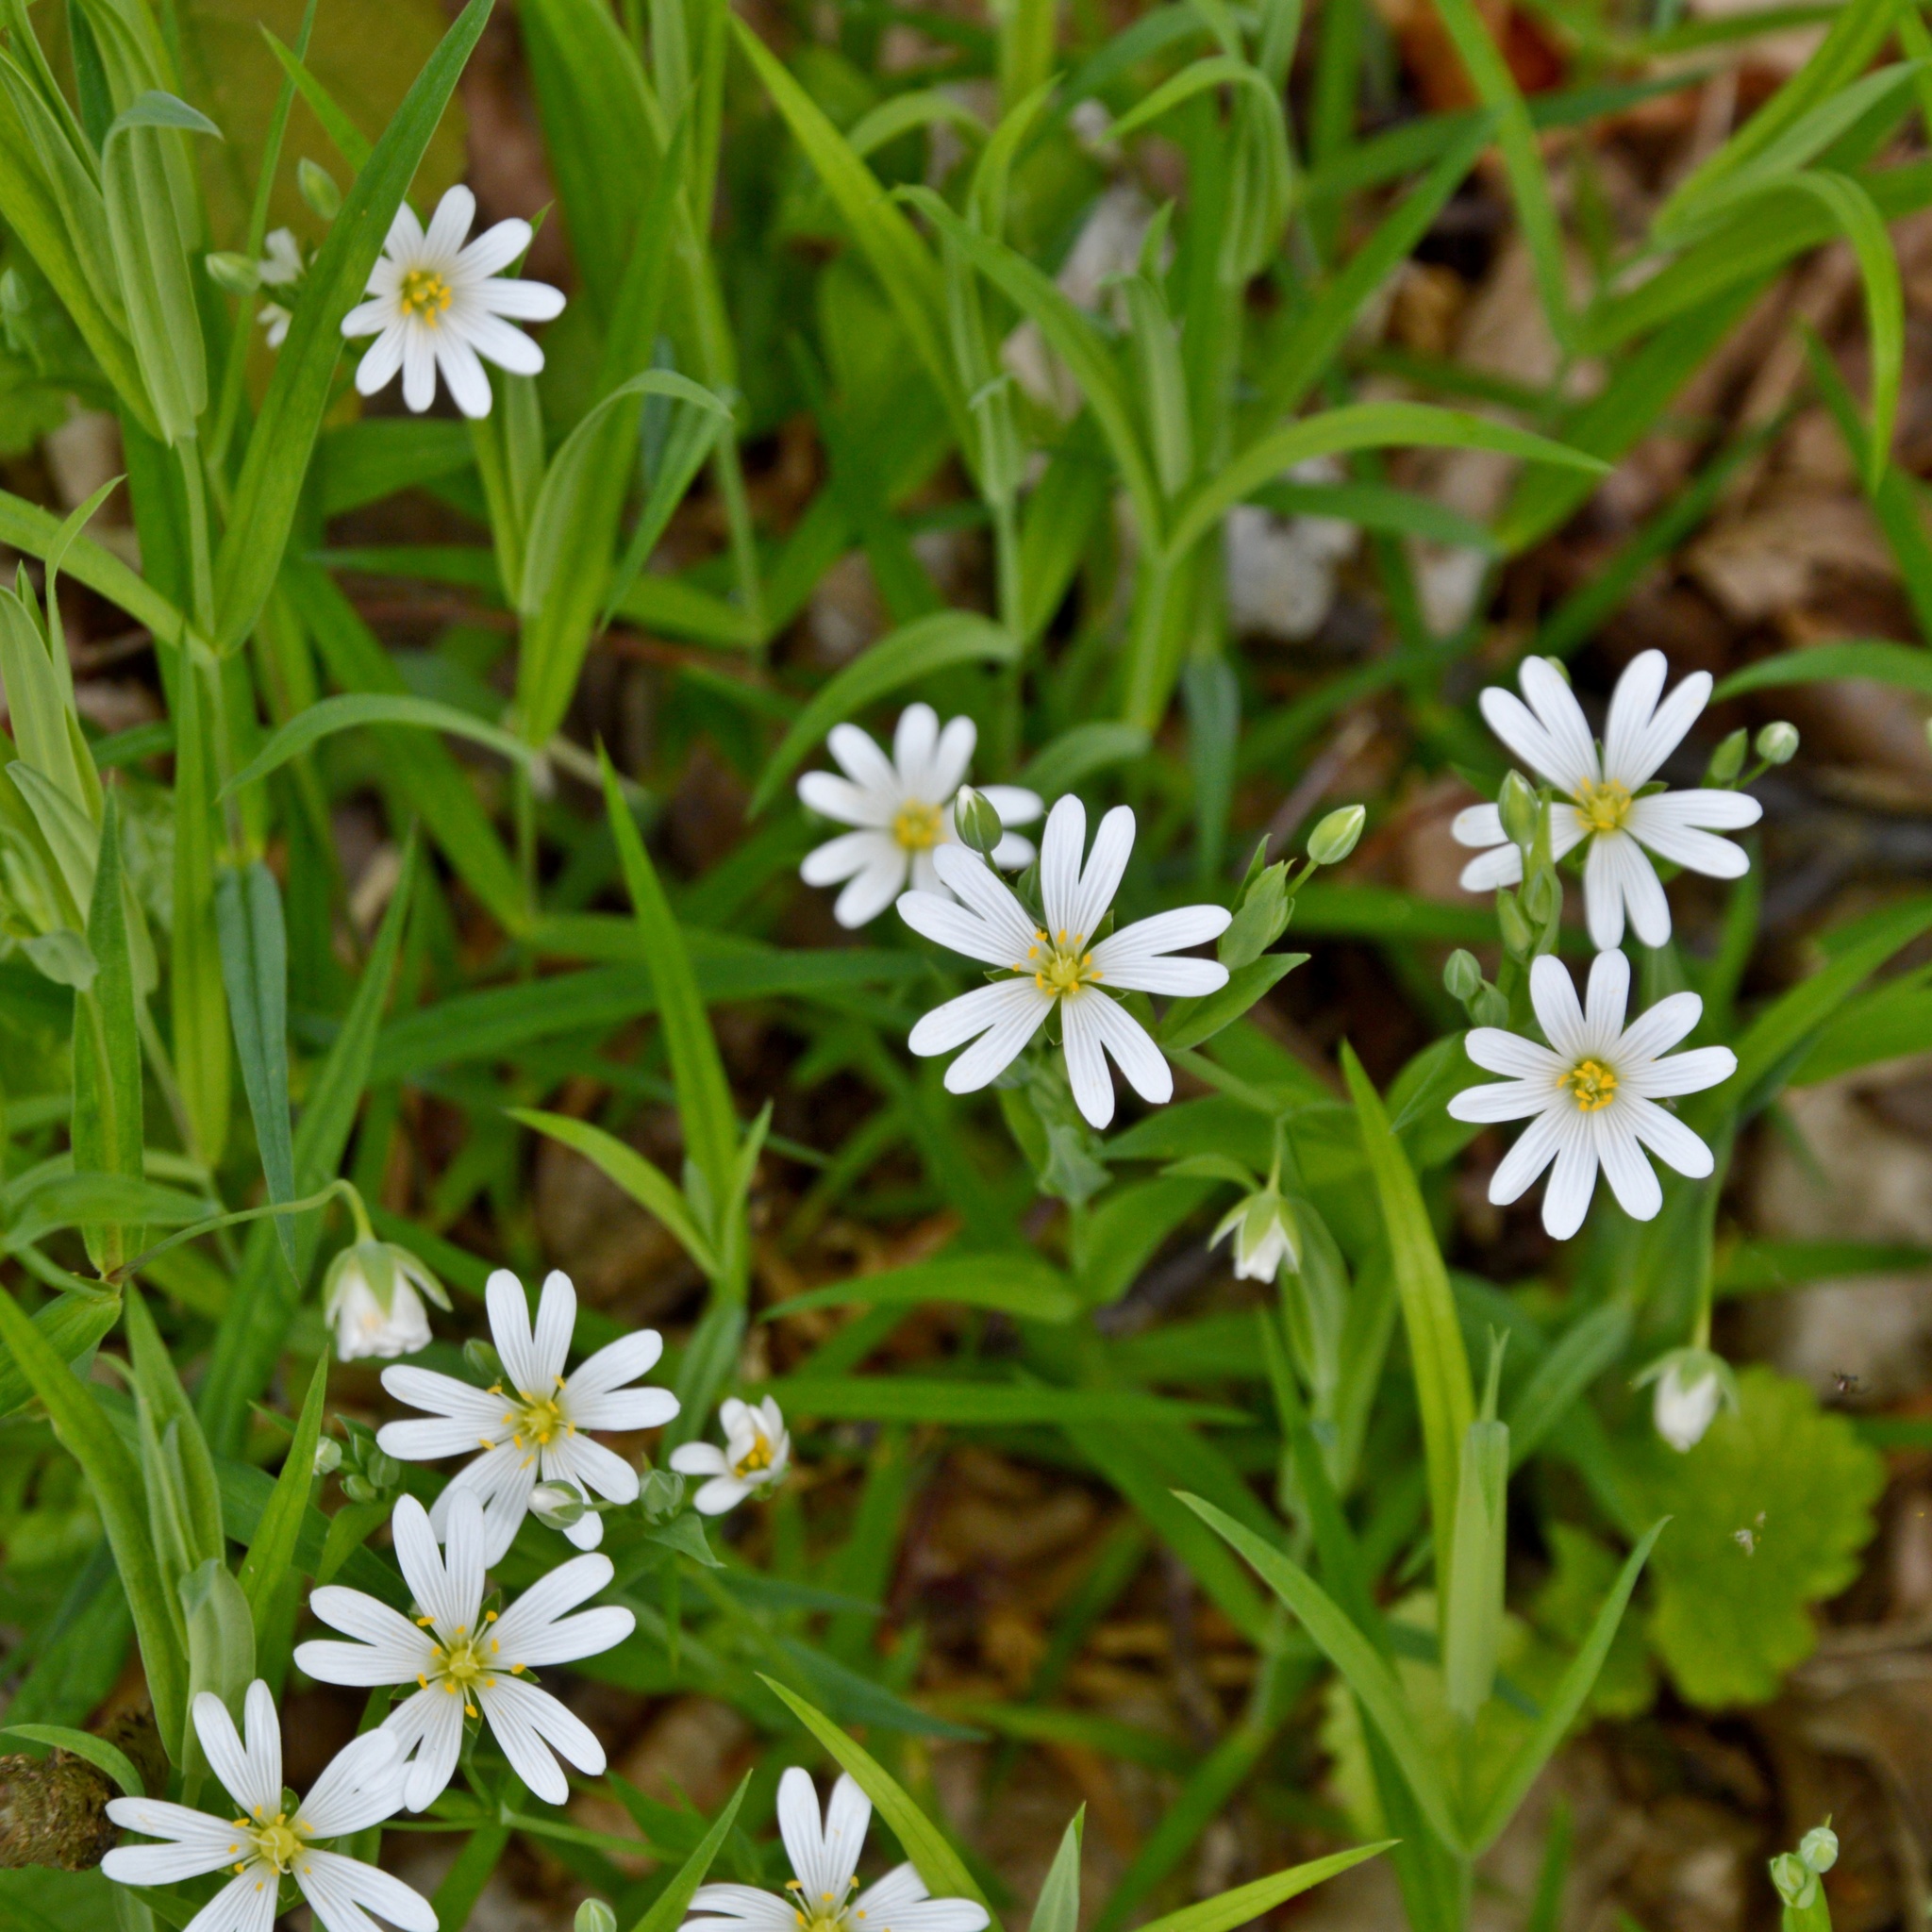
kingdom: Plantae
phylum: Tracheophyta
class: Magnoliopsida
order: Caryophyllales
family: Caryophyllaceae
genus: Rabelera
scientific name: Rabelera holostea
